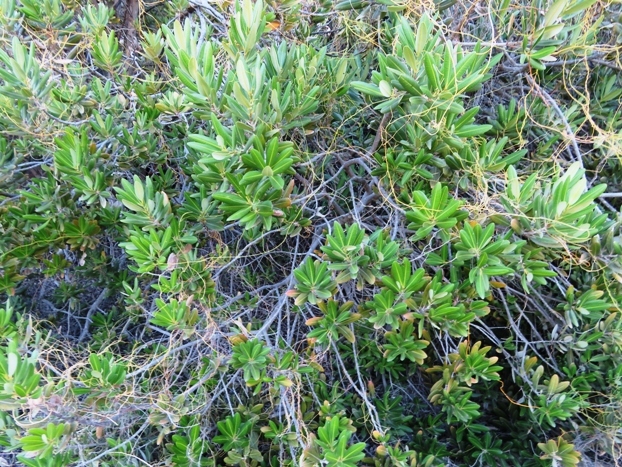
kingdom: Plantae
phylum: Tracheophyta
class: Magnoliopsida
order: Sapindales
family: Anacardiaceae
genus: Heeria
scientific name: Heeria argentea
